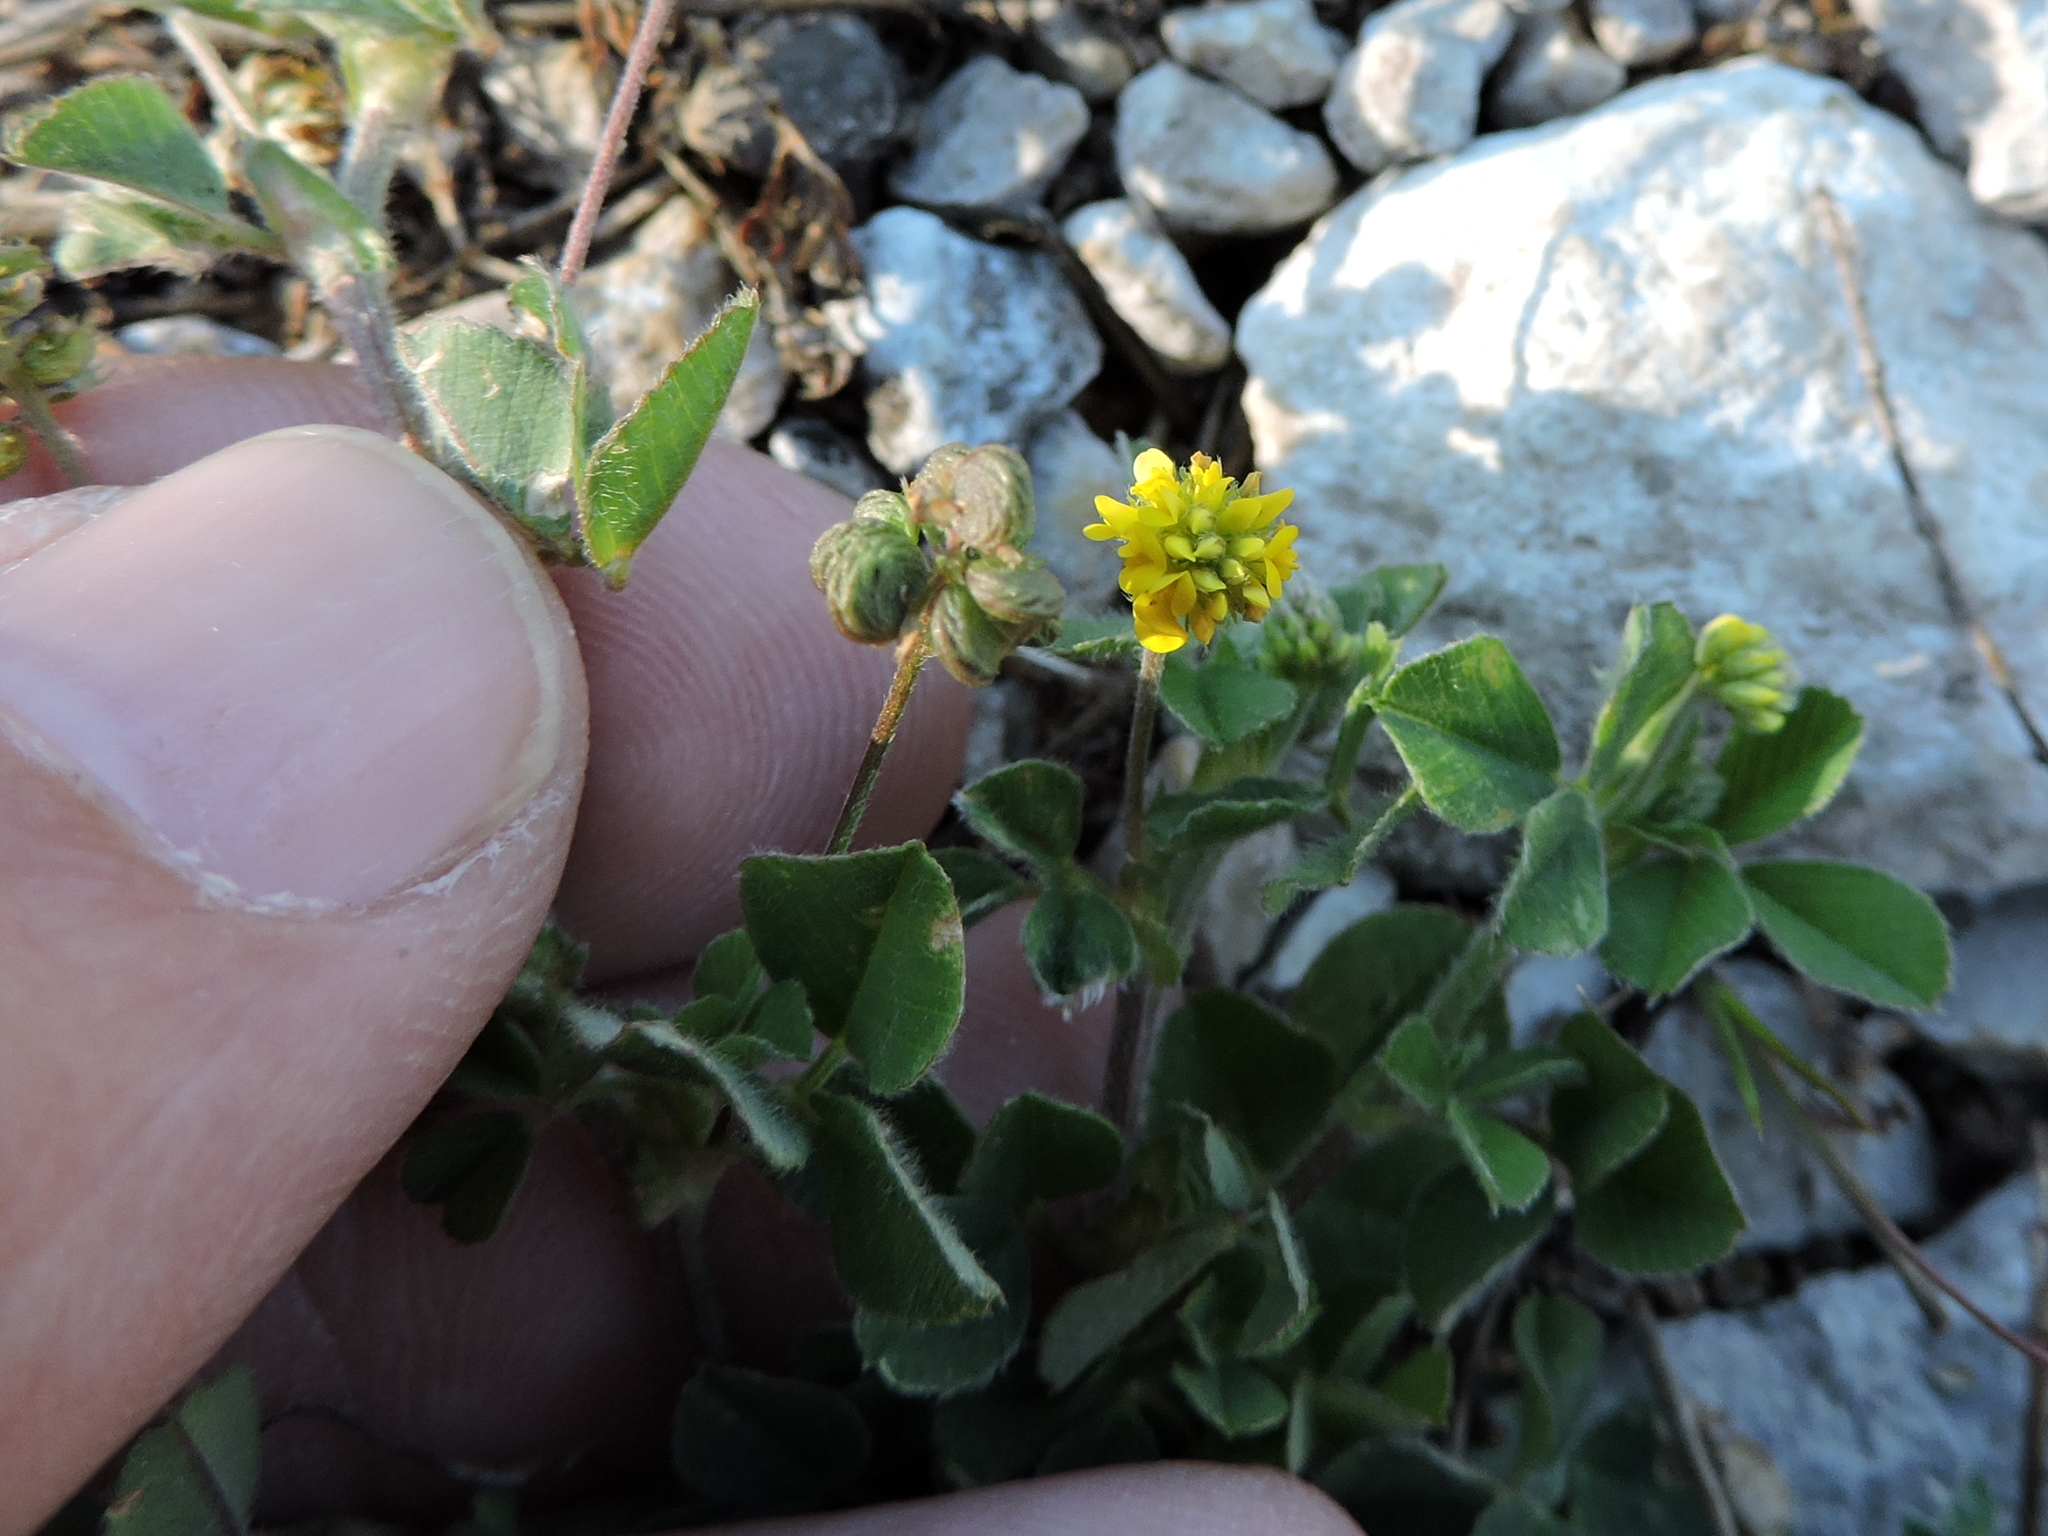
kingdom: Plantae
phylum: Tracheophyta
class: Magnoliopsida
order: Fabales
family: Fabaceae
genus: Medicago
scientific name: Medicago lupulina
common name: Black medick
